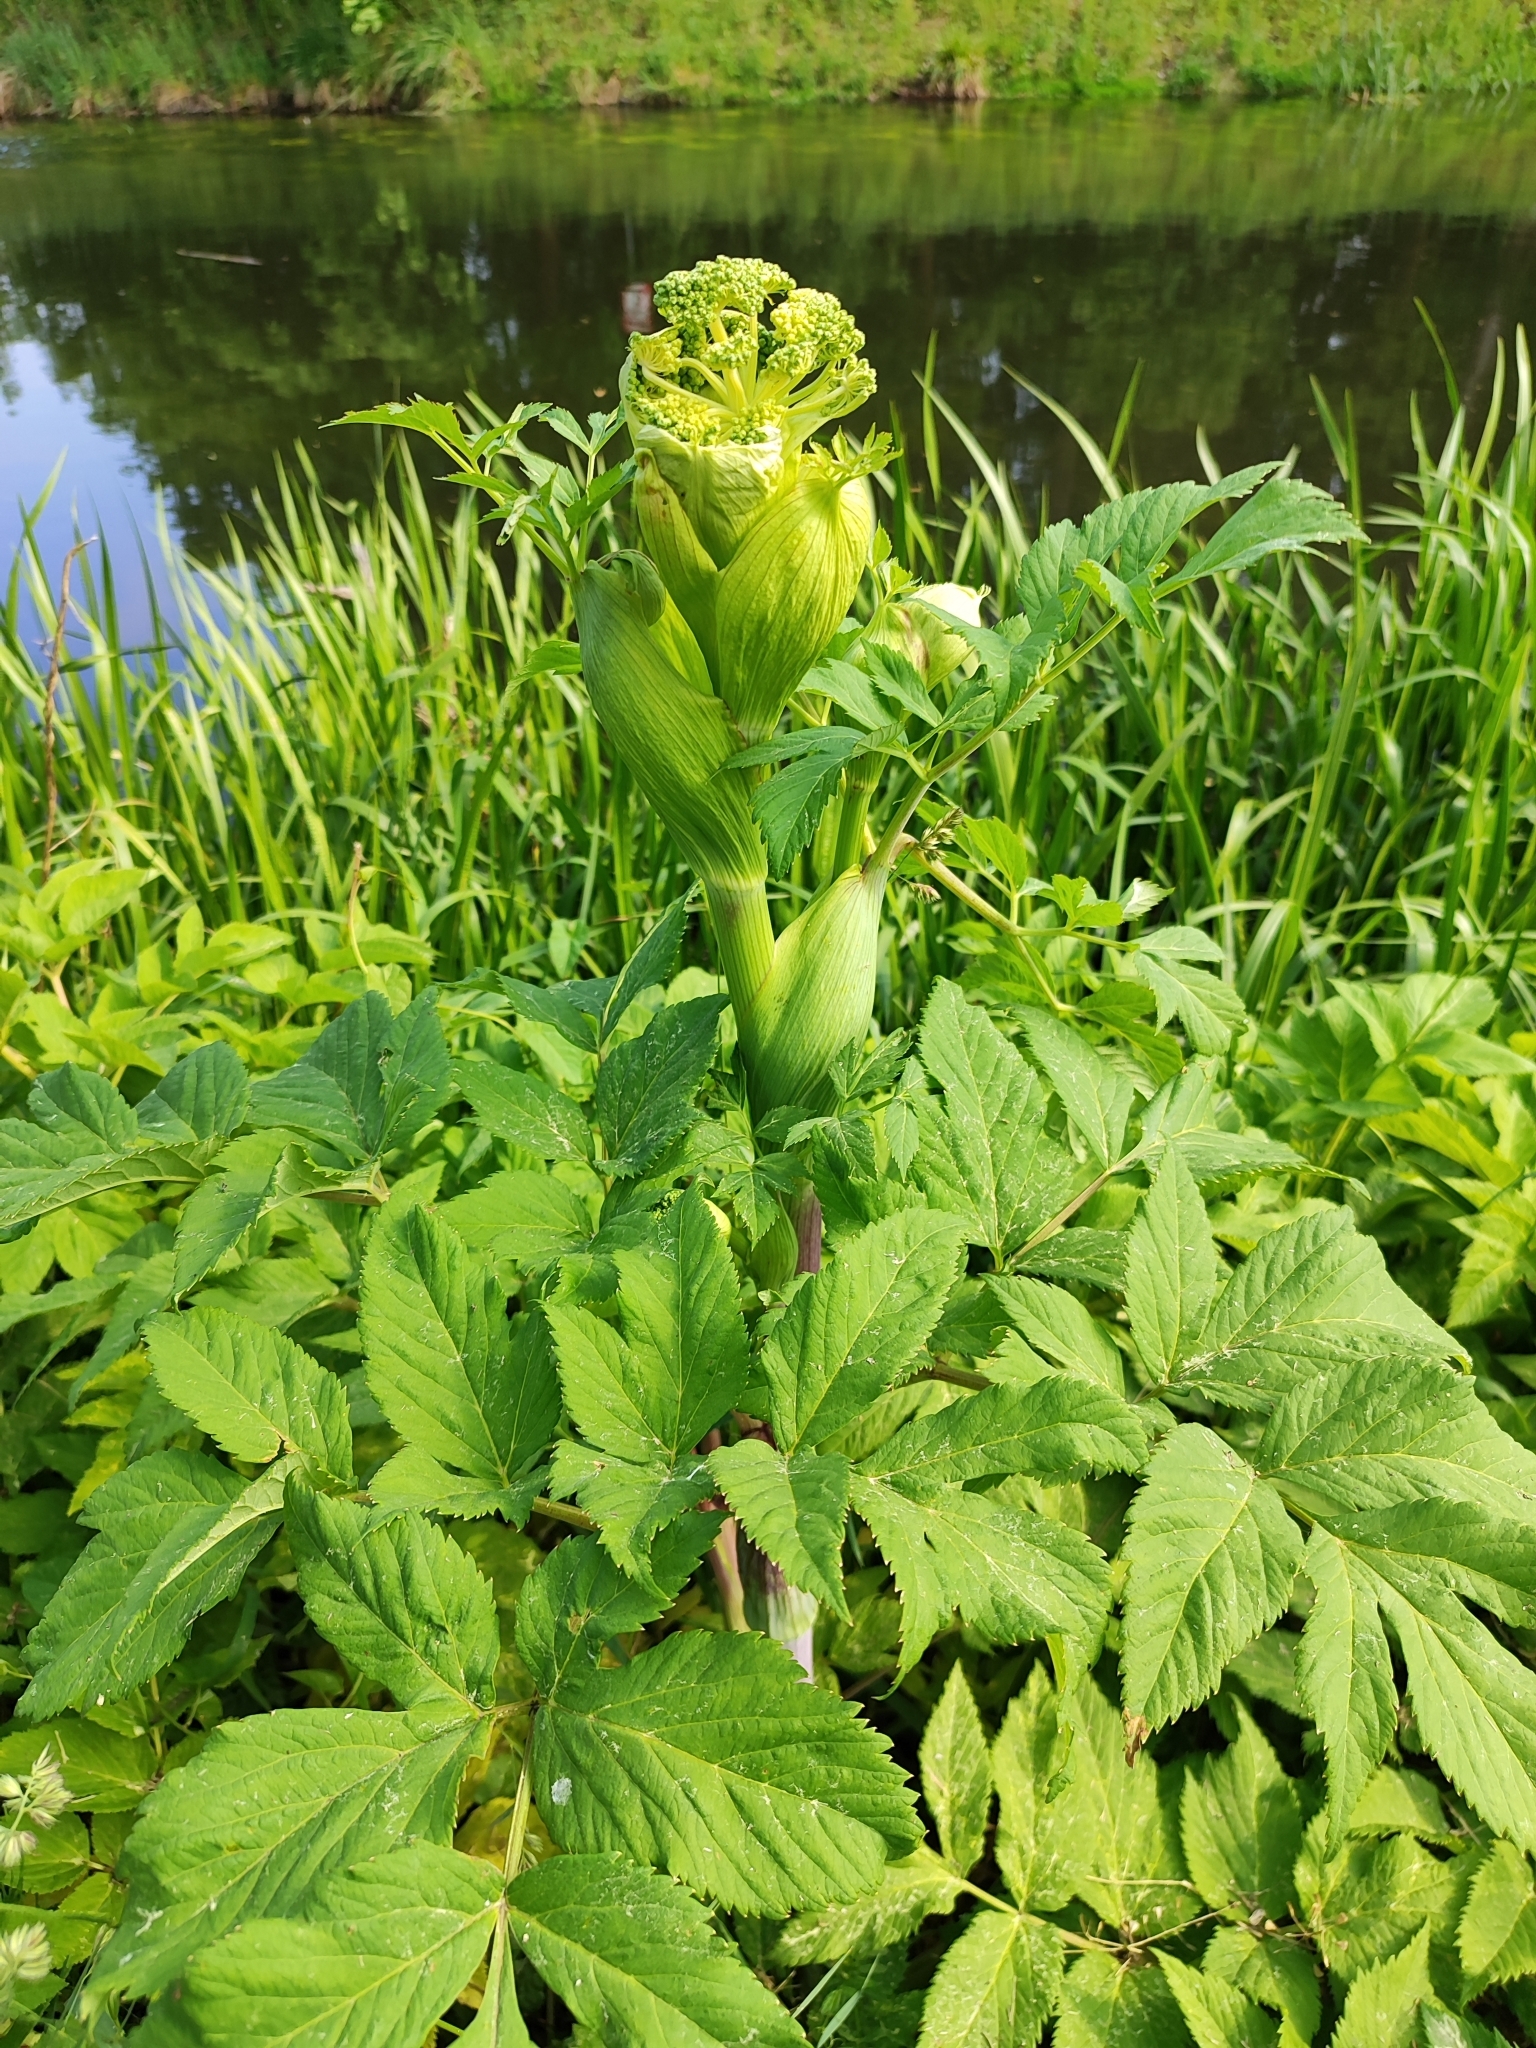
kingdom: Plantae
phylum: Tracheophyta
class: Magnoliopsida
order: Apiales
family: Apiaceae
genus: Angelica
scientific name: Angelica archangelica
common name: Garden angelica
